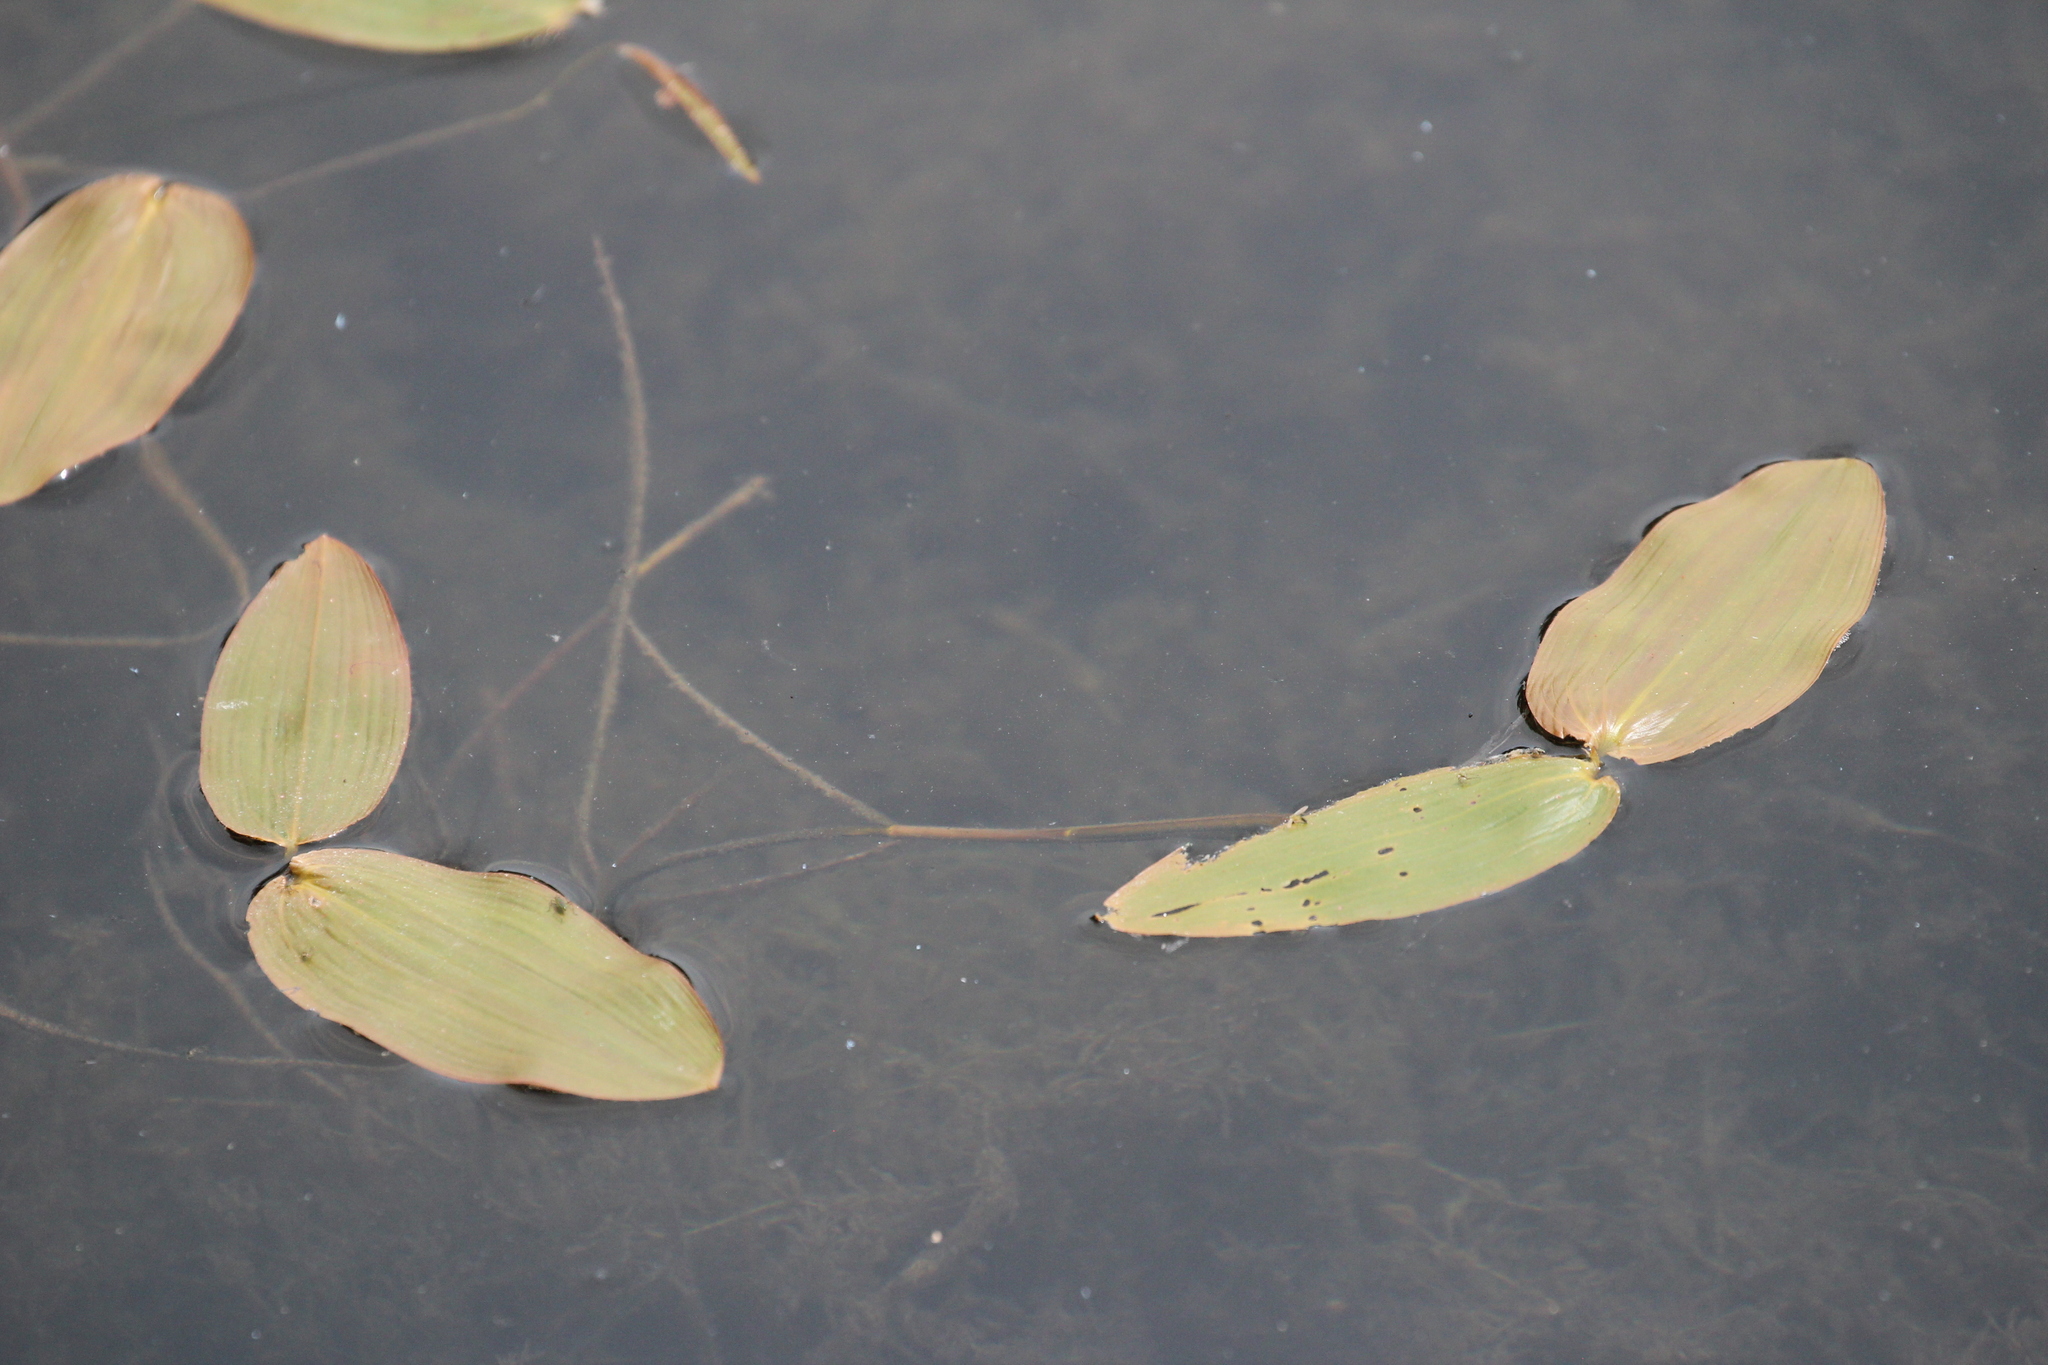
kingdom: Plantae
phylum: Tracheophyta
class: Liliopsida
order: Alismatales
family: Potamogetonaceae
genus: Potamogeton
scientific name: Potamogeton natans
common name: Broad-leaved pondweed
